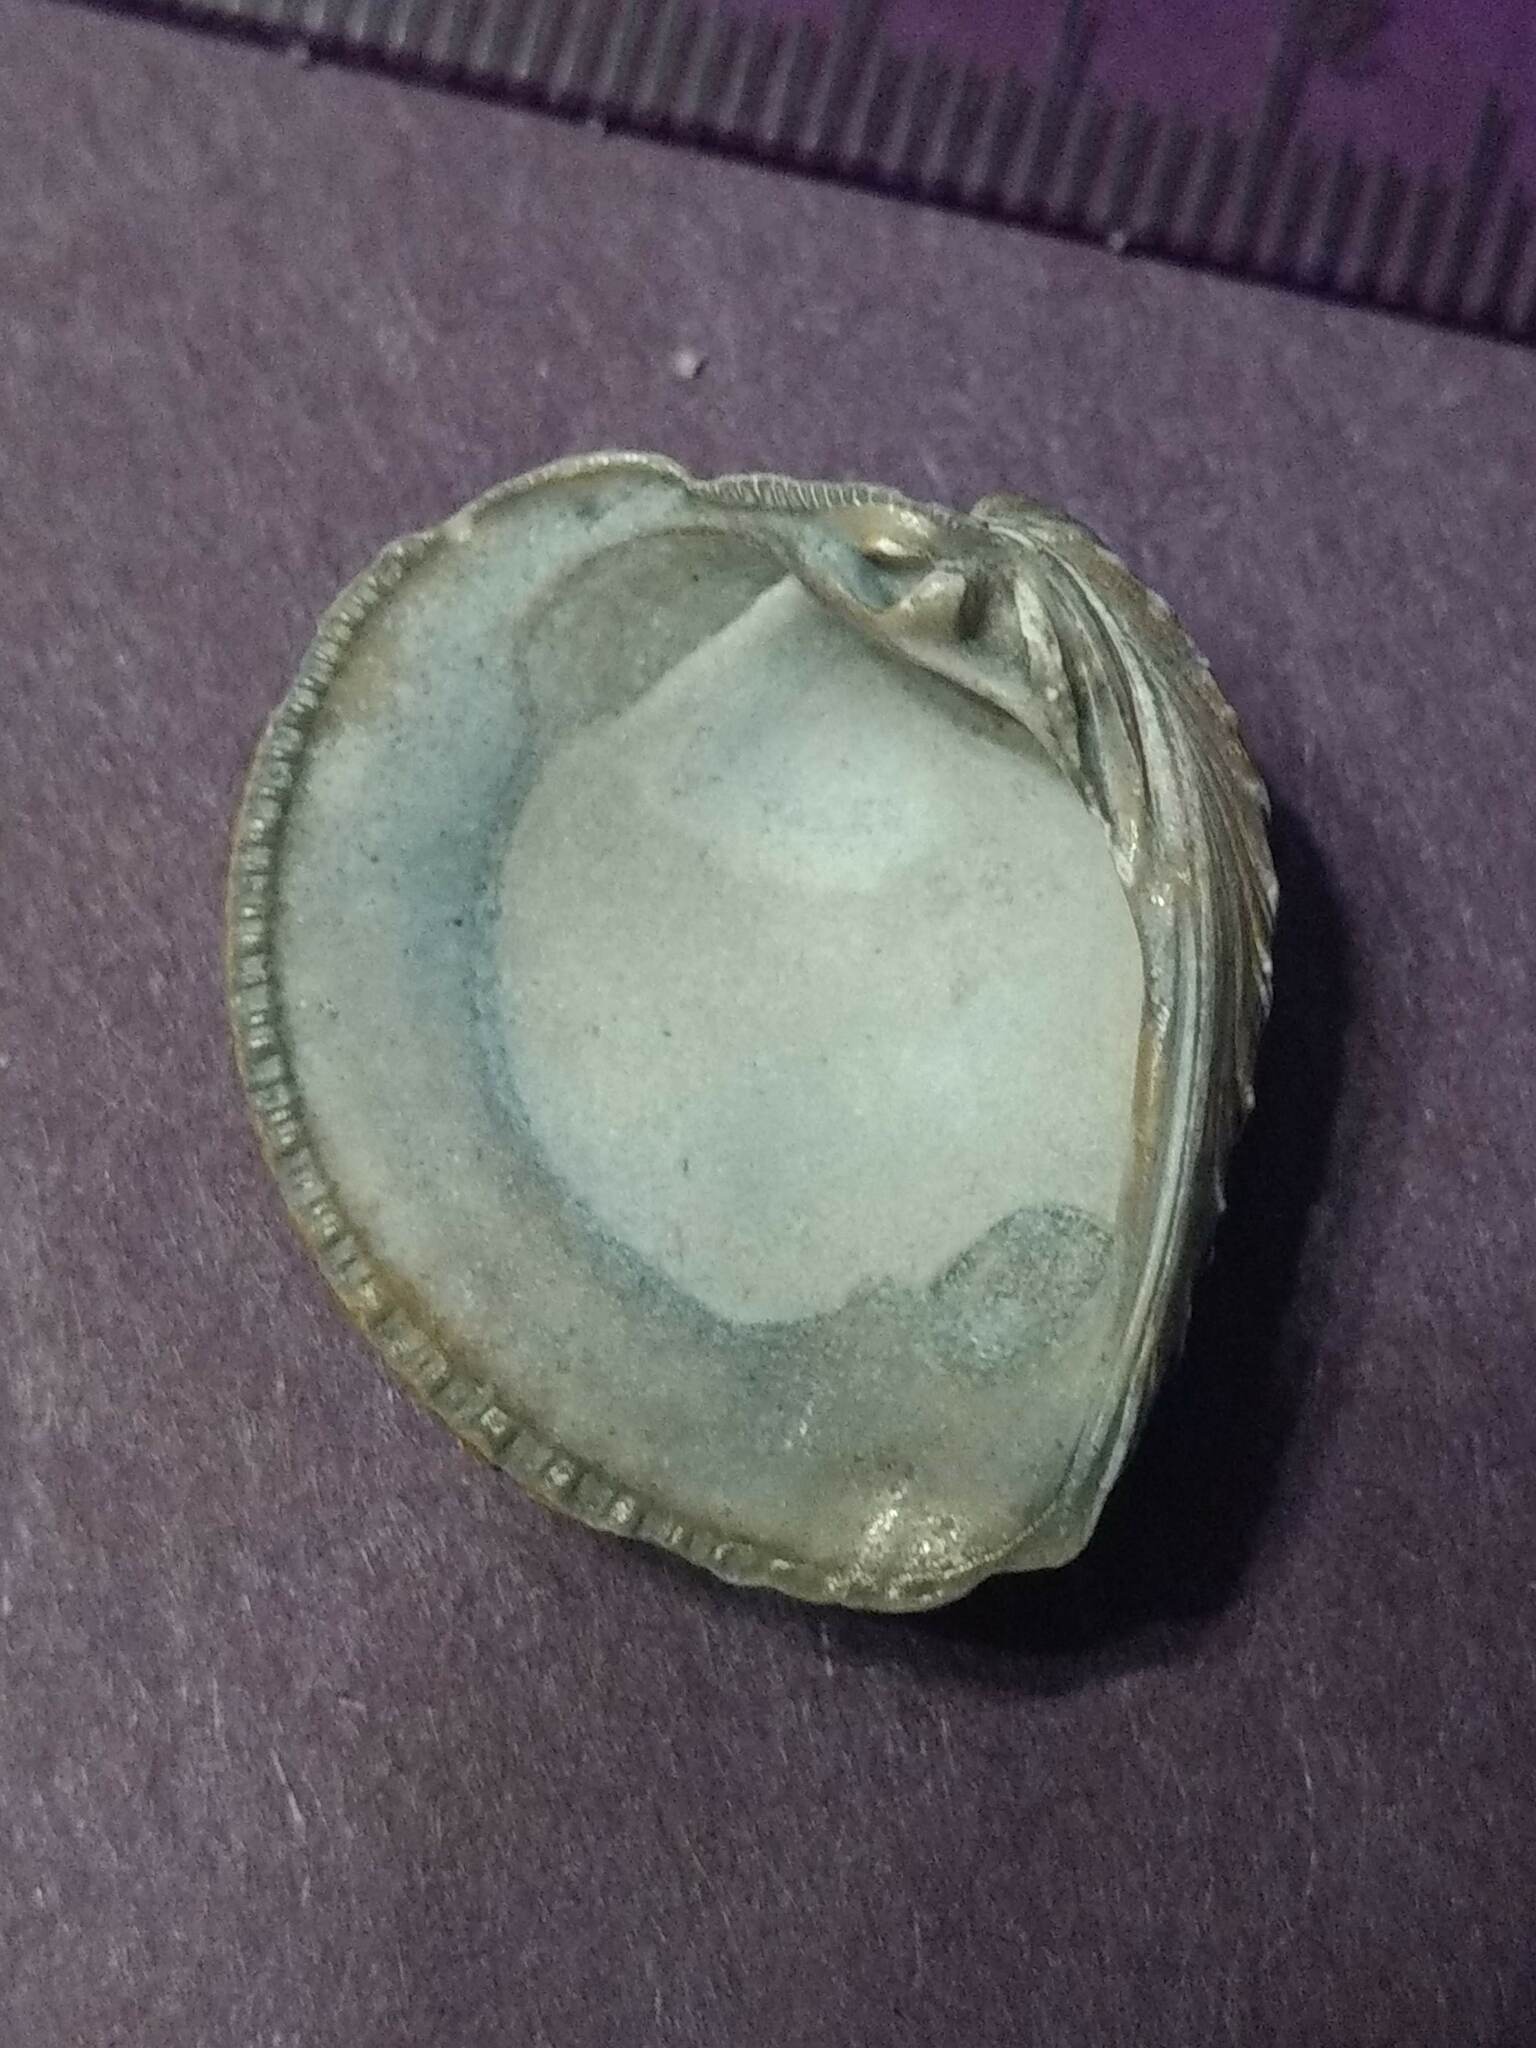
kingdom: Animalia
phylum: Mollusca
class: Bivalvia
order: Venerida
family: Veneridae
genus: Chione
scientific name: Chione elevata
